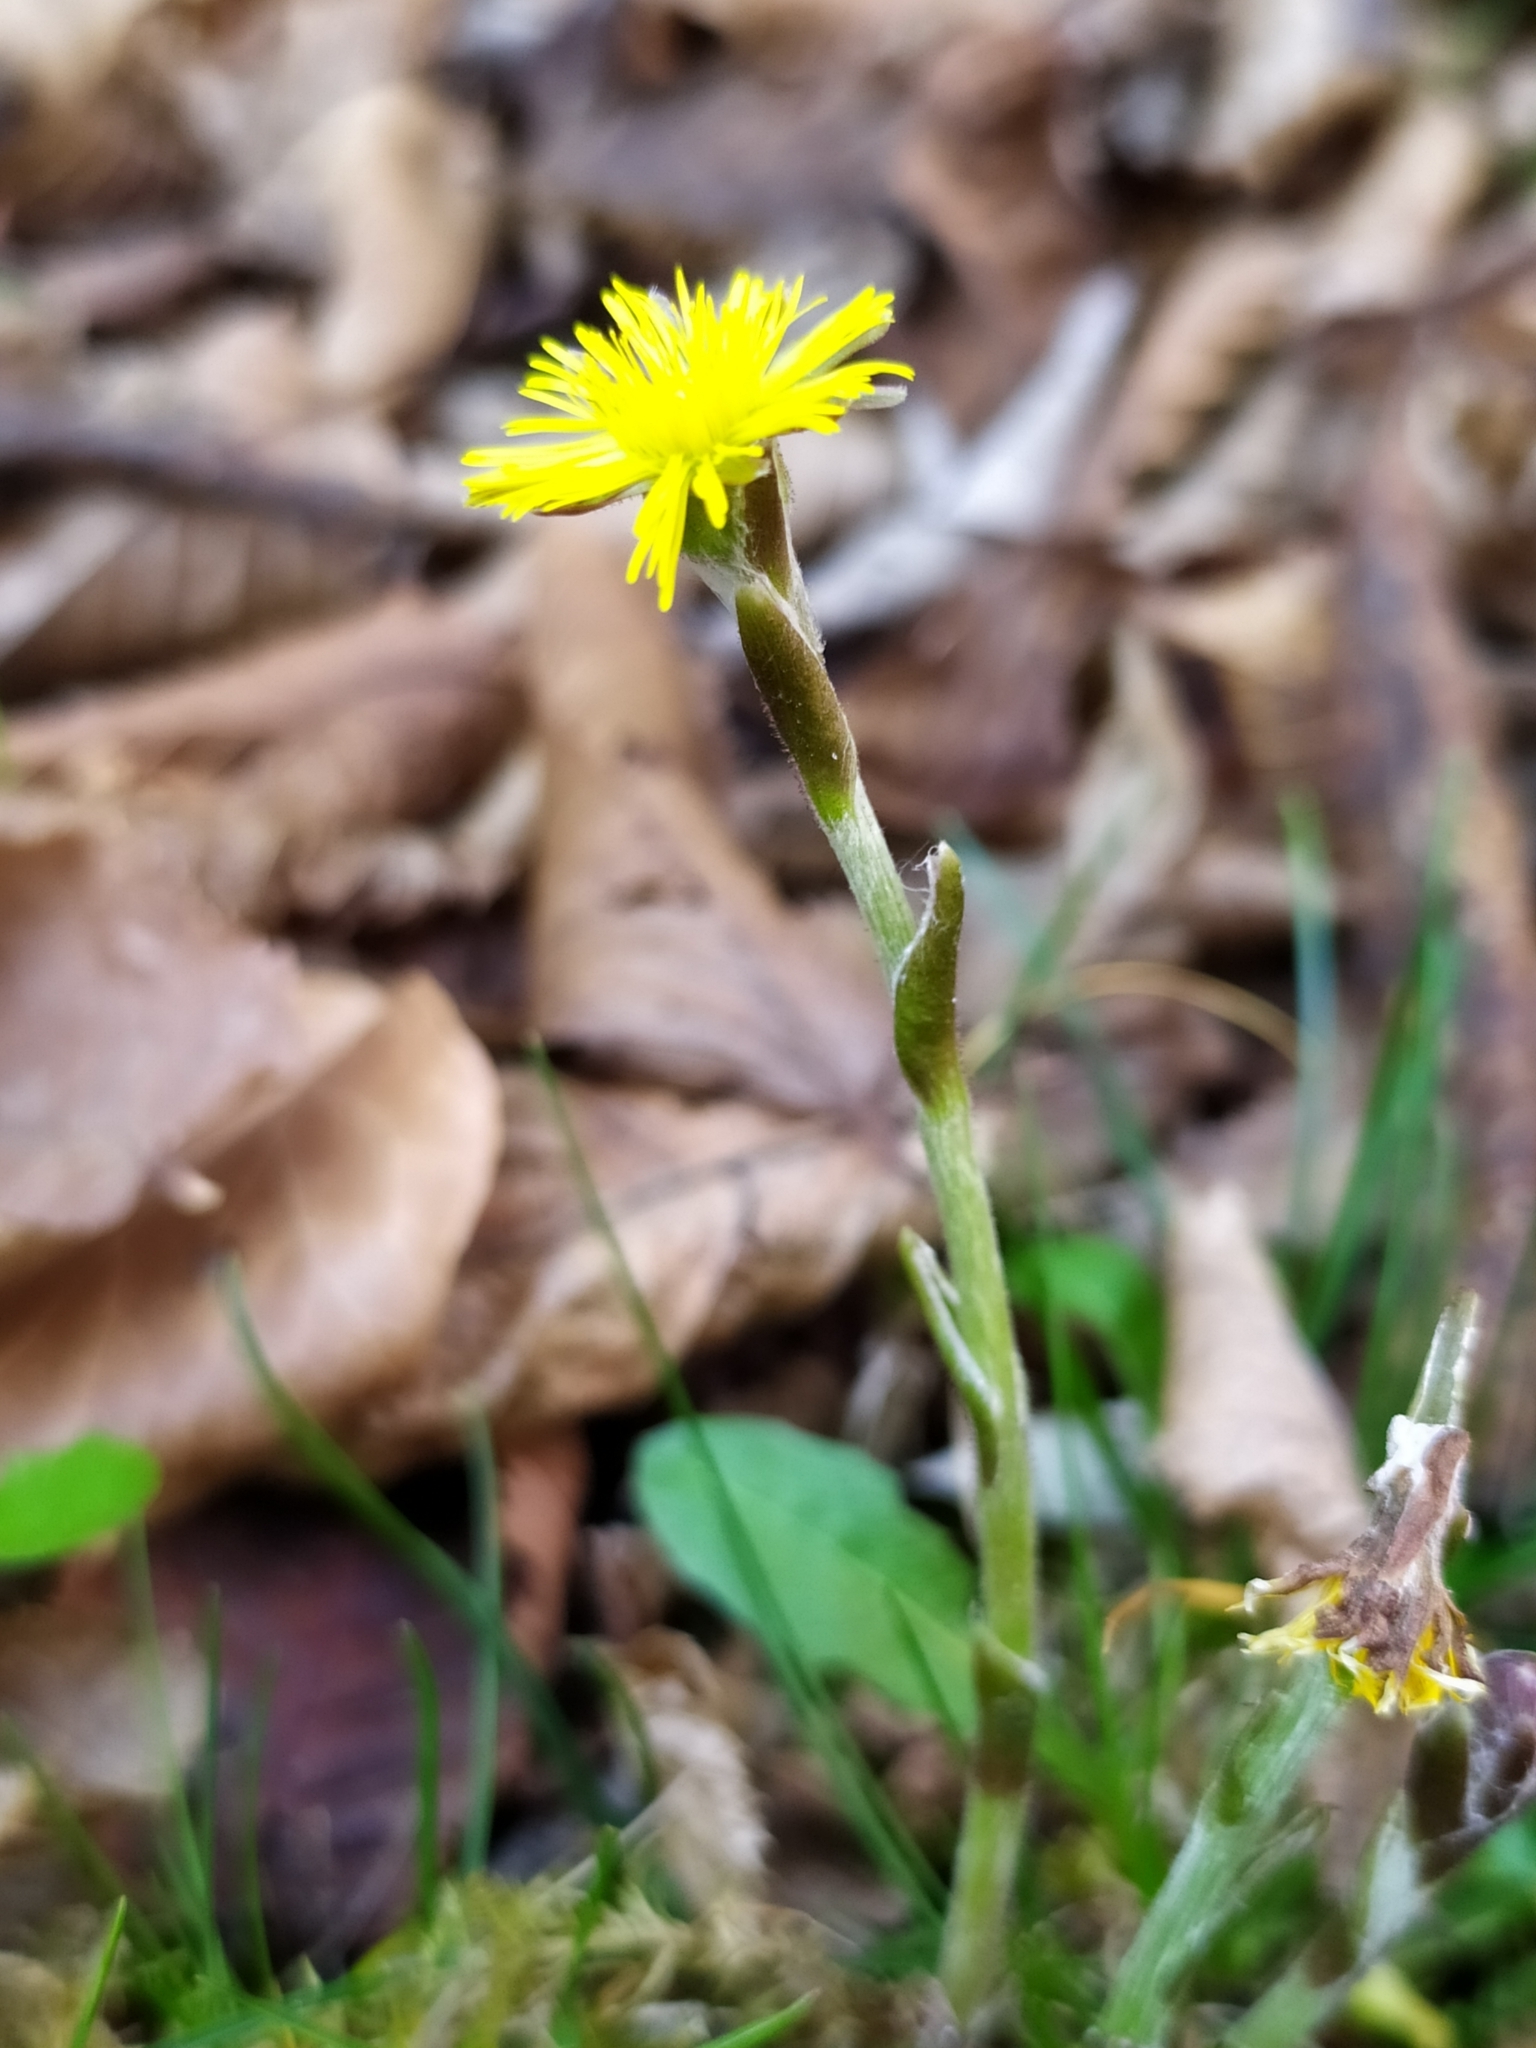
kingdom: Plantae
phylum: Tracheophyta
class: Magnoliopsida
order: Asterales
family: Asteraceae
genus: Tussilago
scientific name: Tussilago farfara
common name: Coltsfoot
